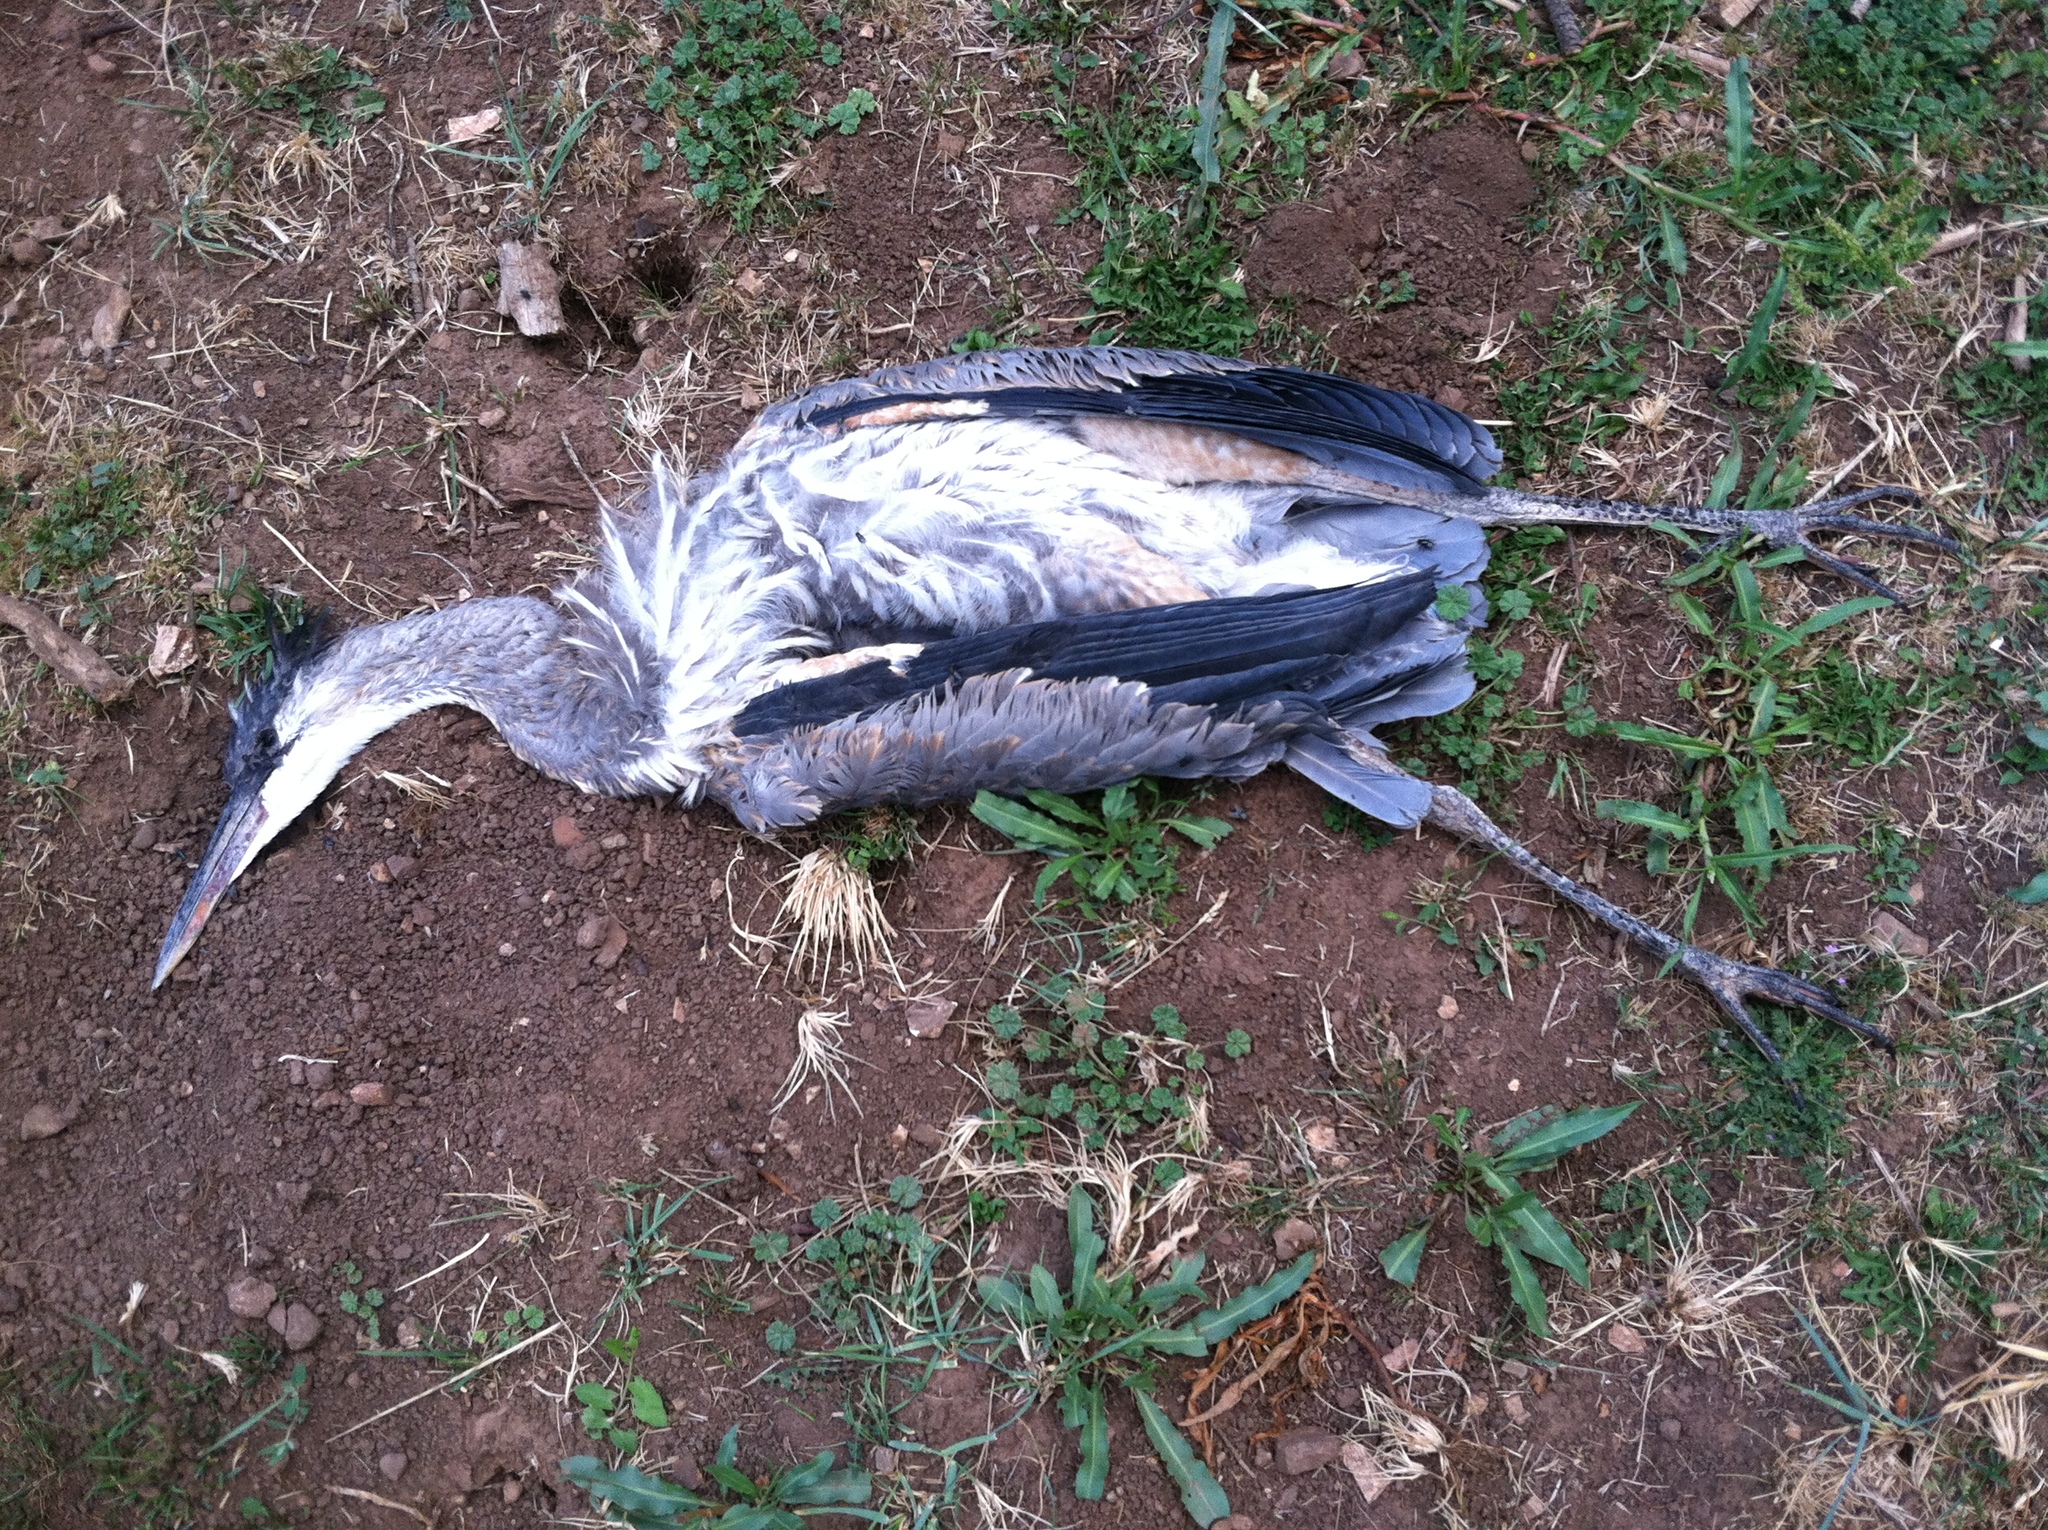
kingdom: Animalia
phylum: Chordata
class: Aves
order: Pelecaniformes
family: Ardeidae
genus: Ardea
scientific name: Ardea herodias
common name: Great blue heron
